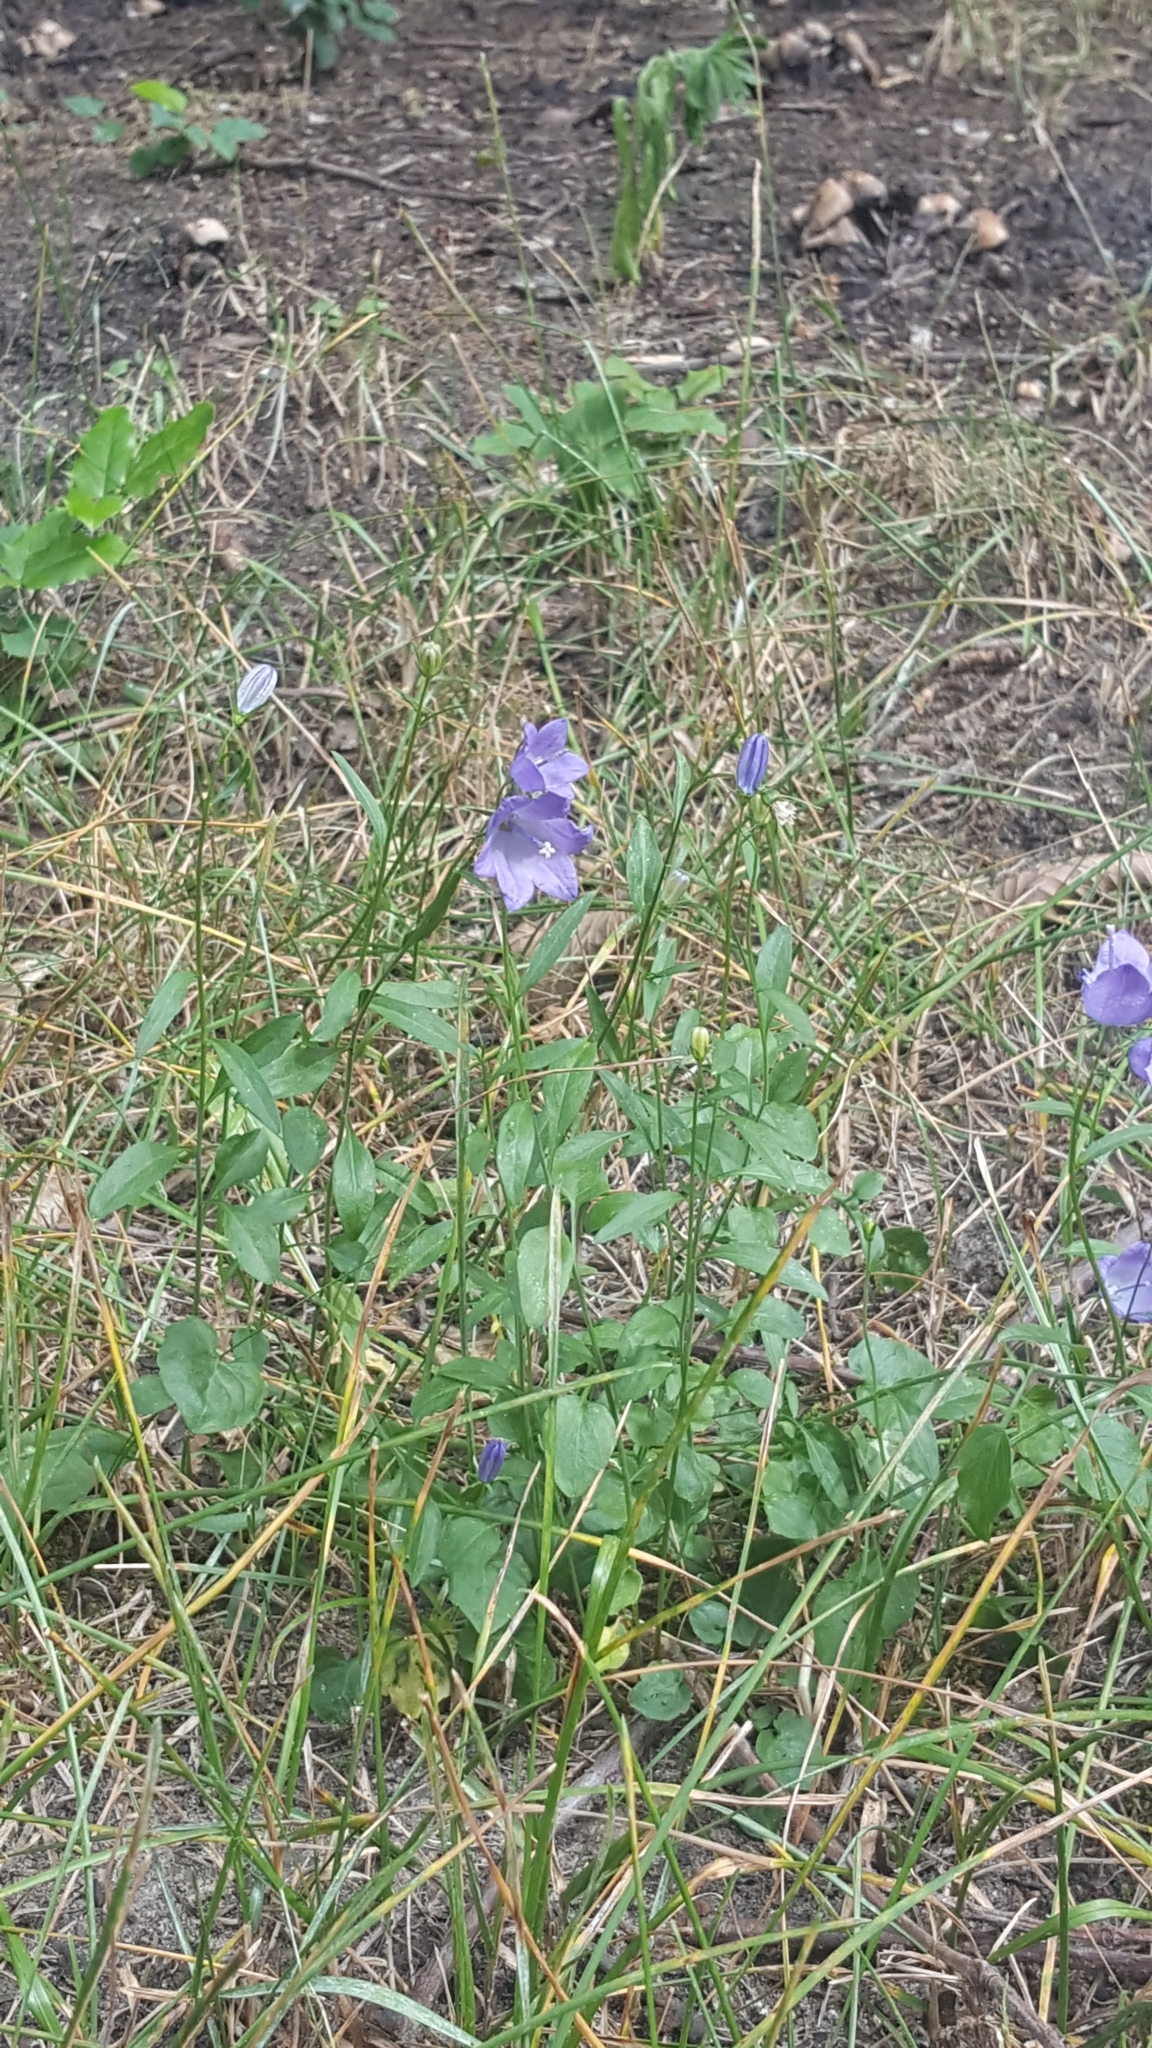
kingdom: Plantae
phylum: Tracheophyta
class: Magnoliopsida
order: Asterales
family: Campanulaceae
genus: Campanula
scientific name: Campanula rotundifolia
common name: Harebell
